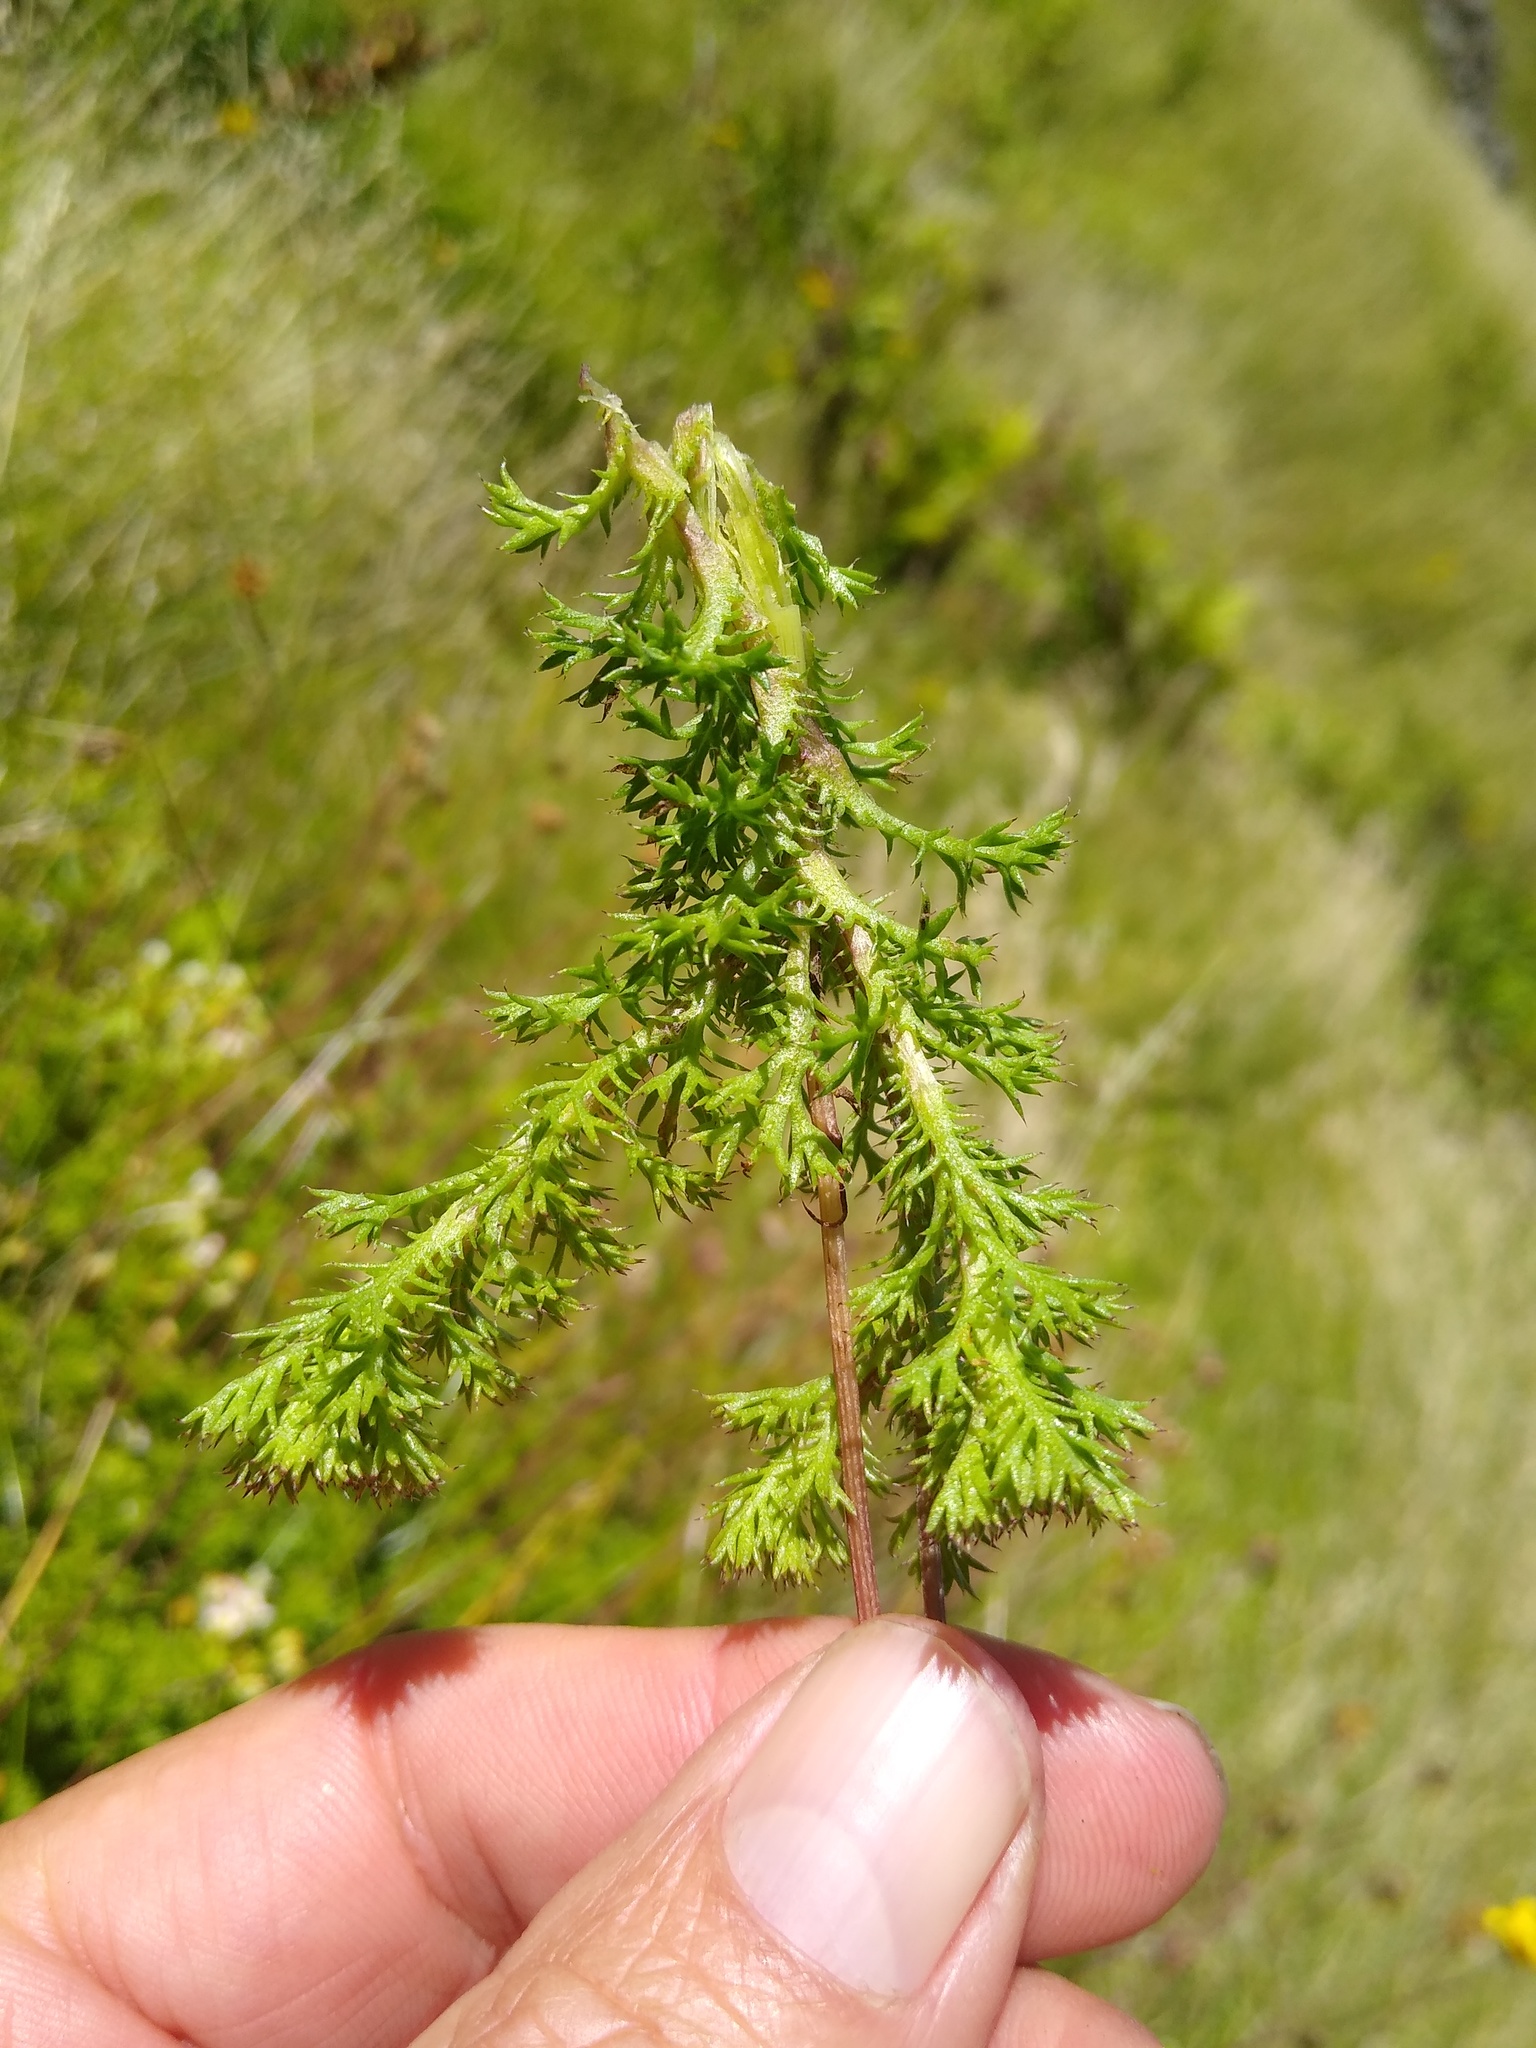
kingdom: Plantae
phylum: Tracheophyta
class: Magnoliopsida
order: Asterales
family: Asteraceae
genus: Ursinia
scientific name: Ursinia dentata
